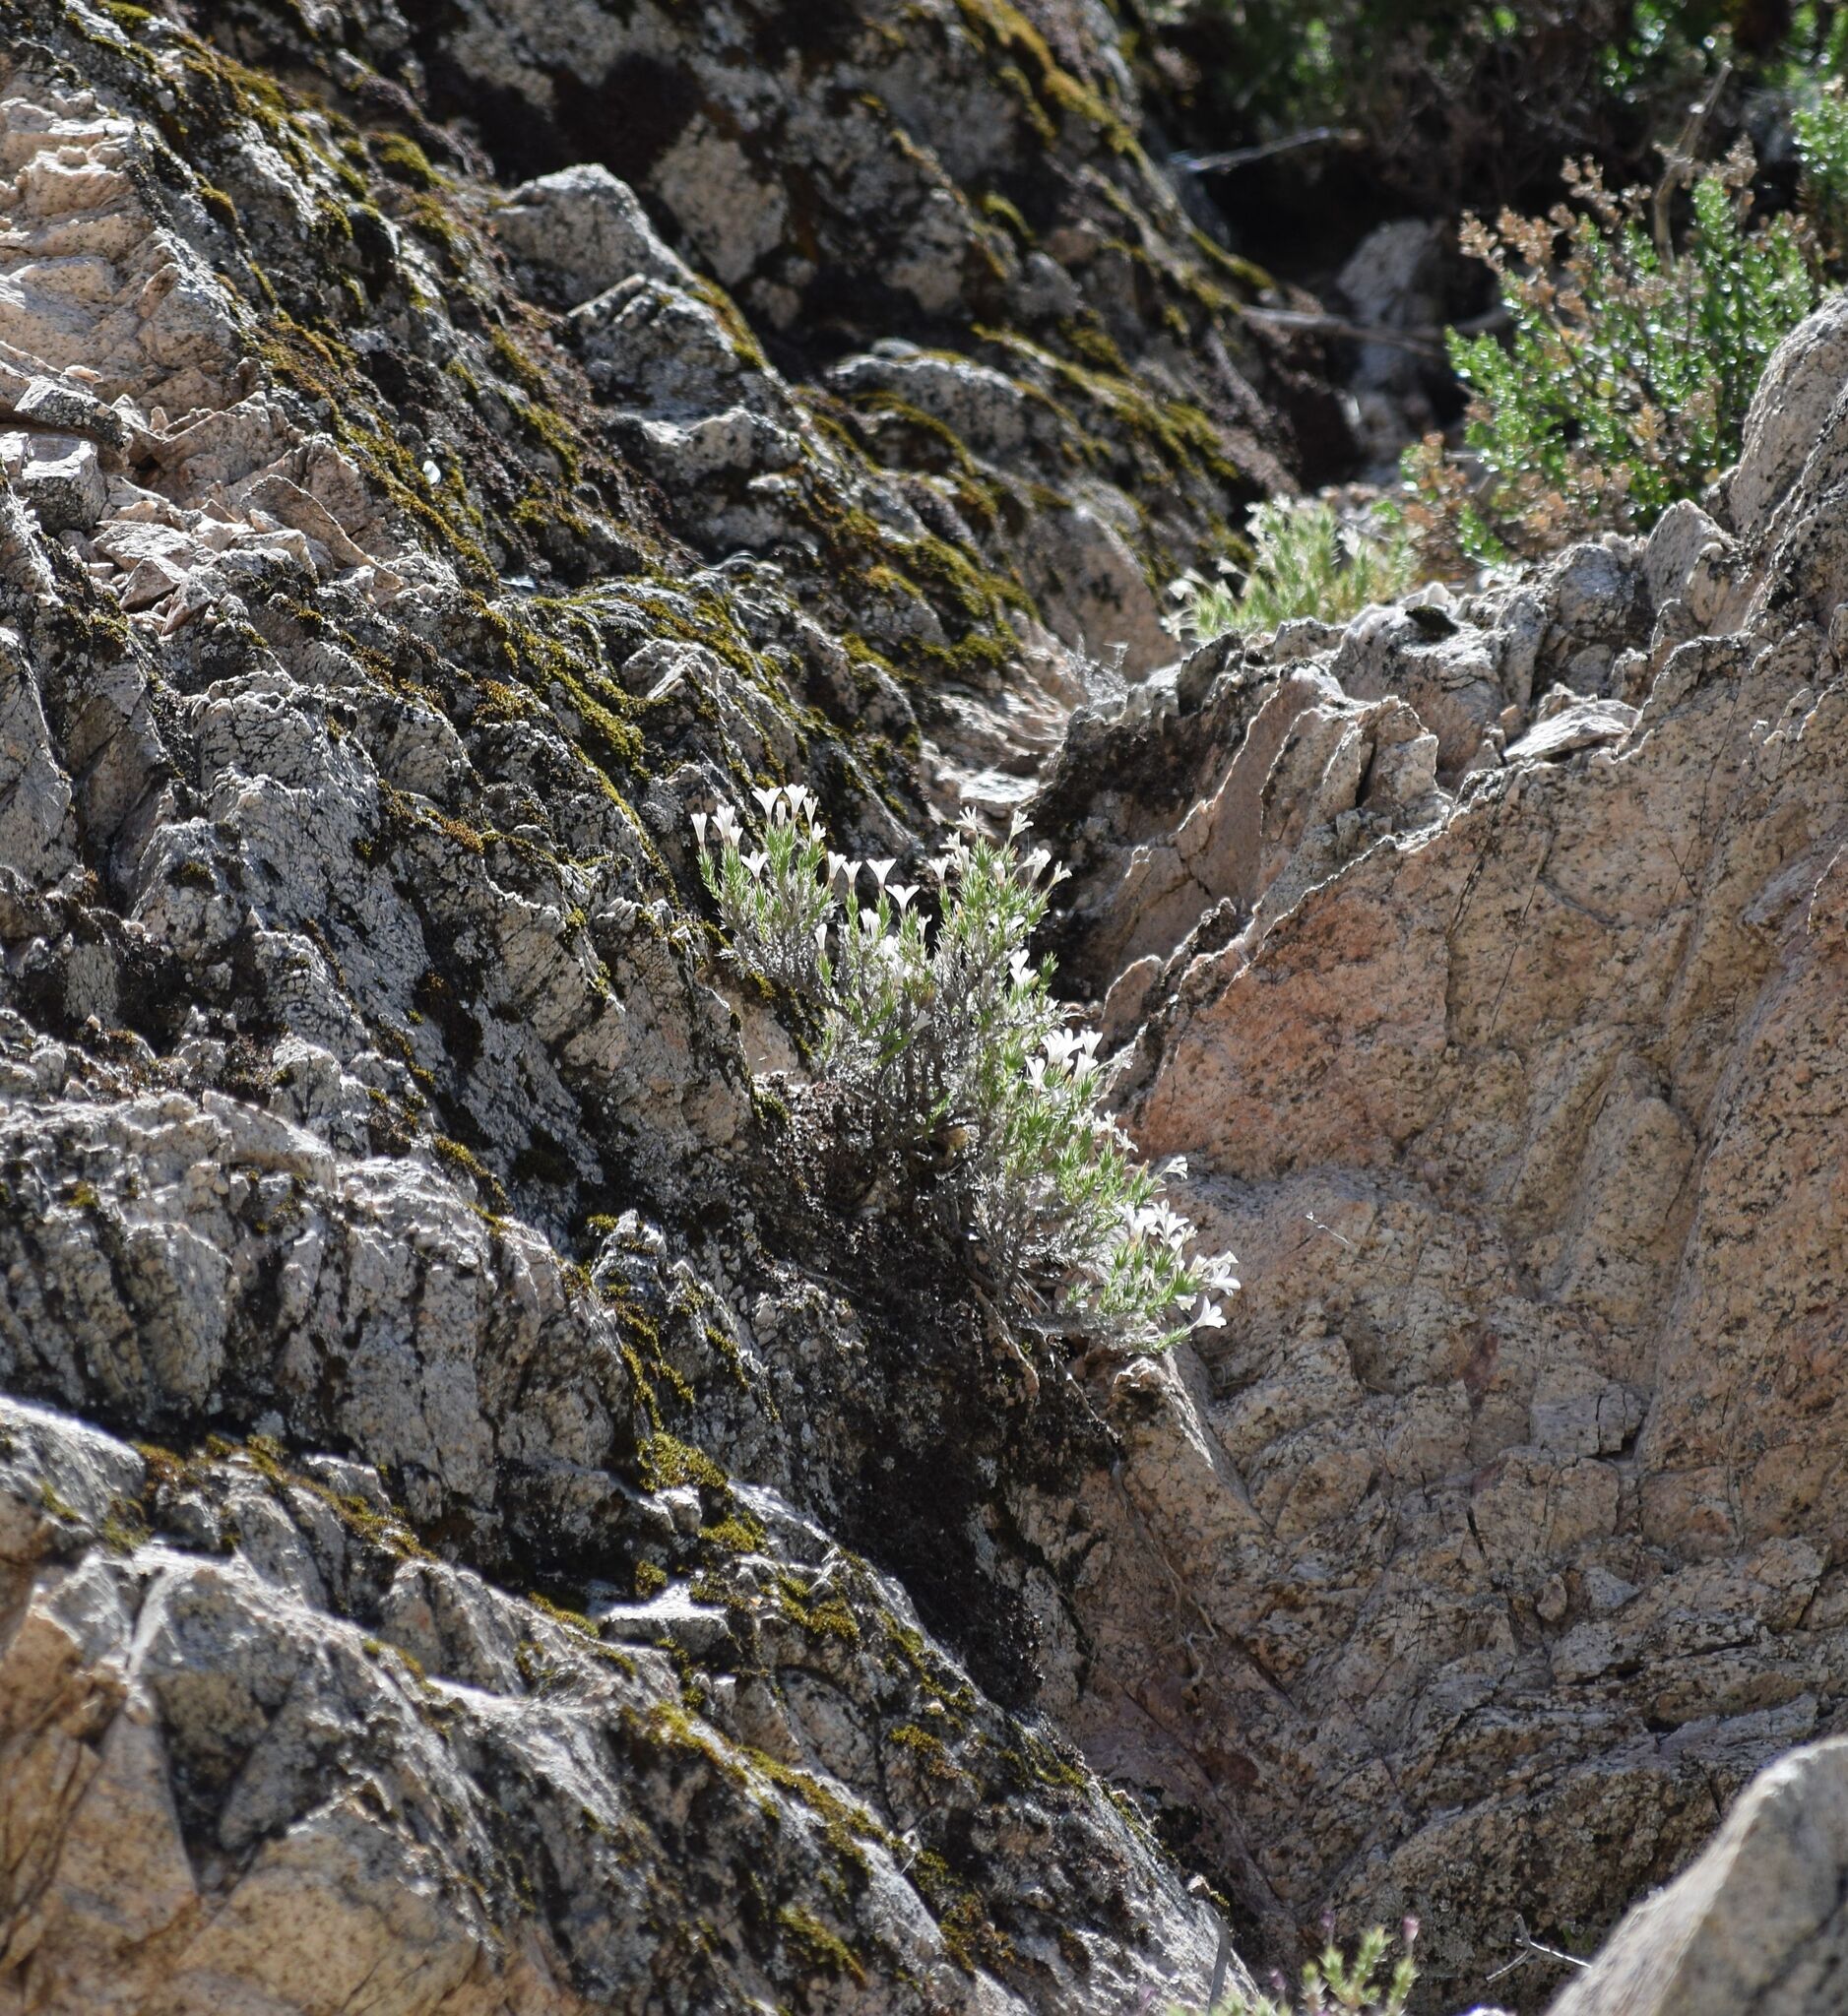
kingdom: Plantae
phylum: Tracheophyta
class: Magnoliopsida
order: Ericales
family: Polemoniaceae
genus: Linanthus
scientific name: Linanthus pungens
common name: Granite prickly phlox
